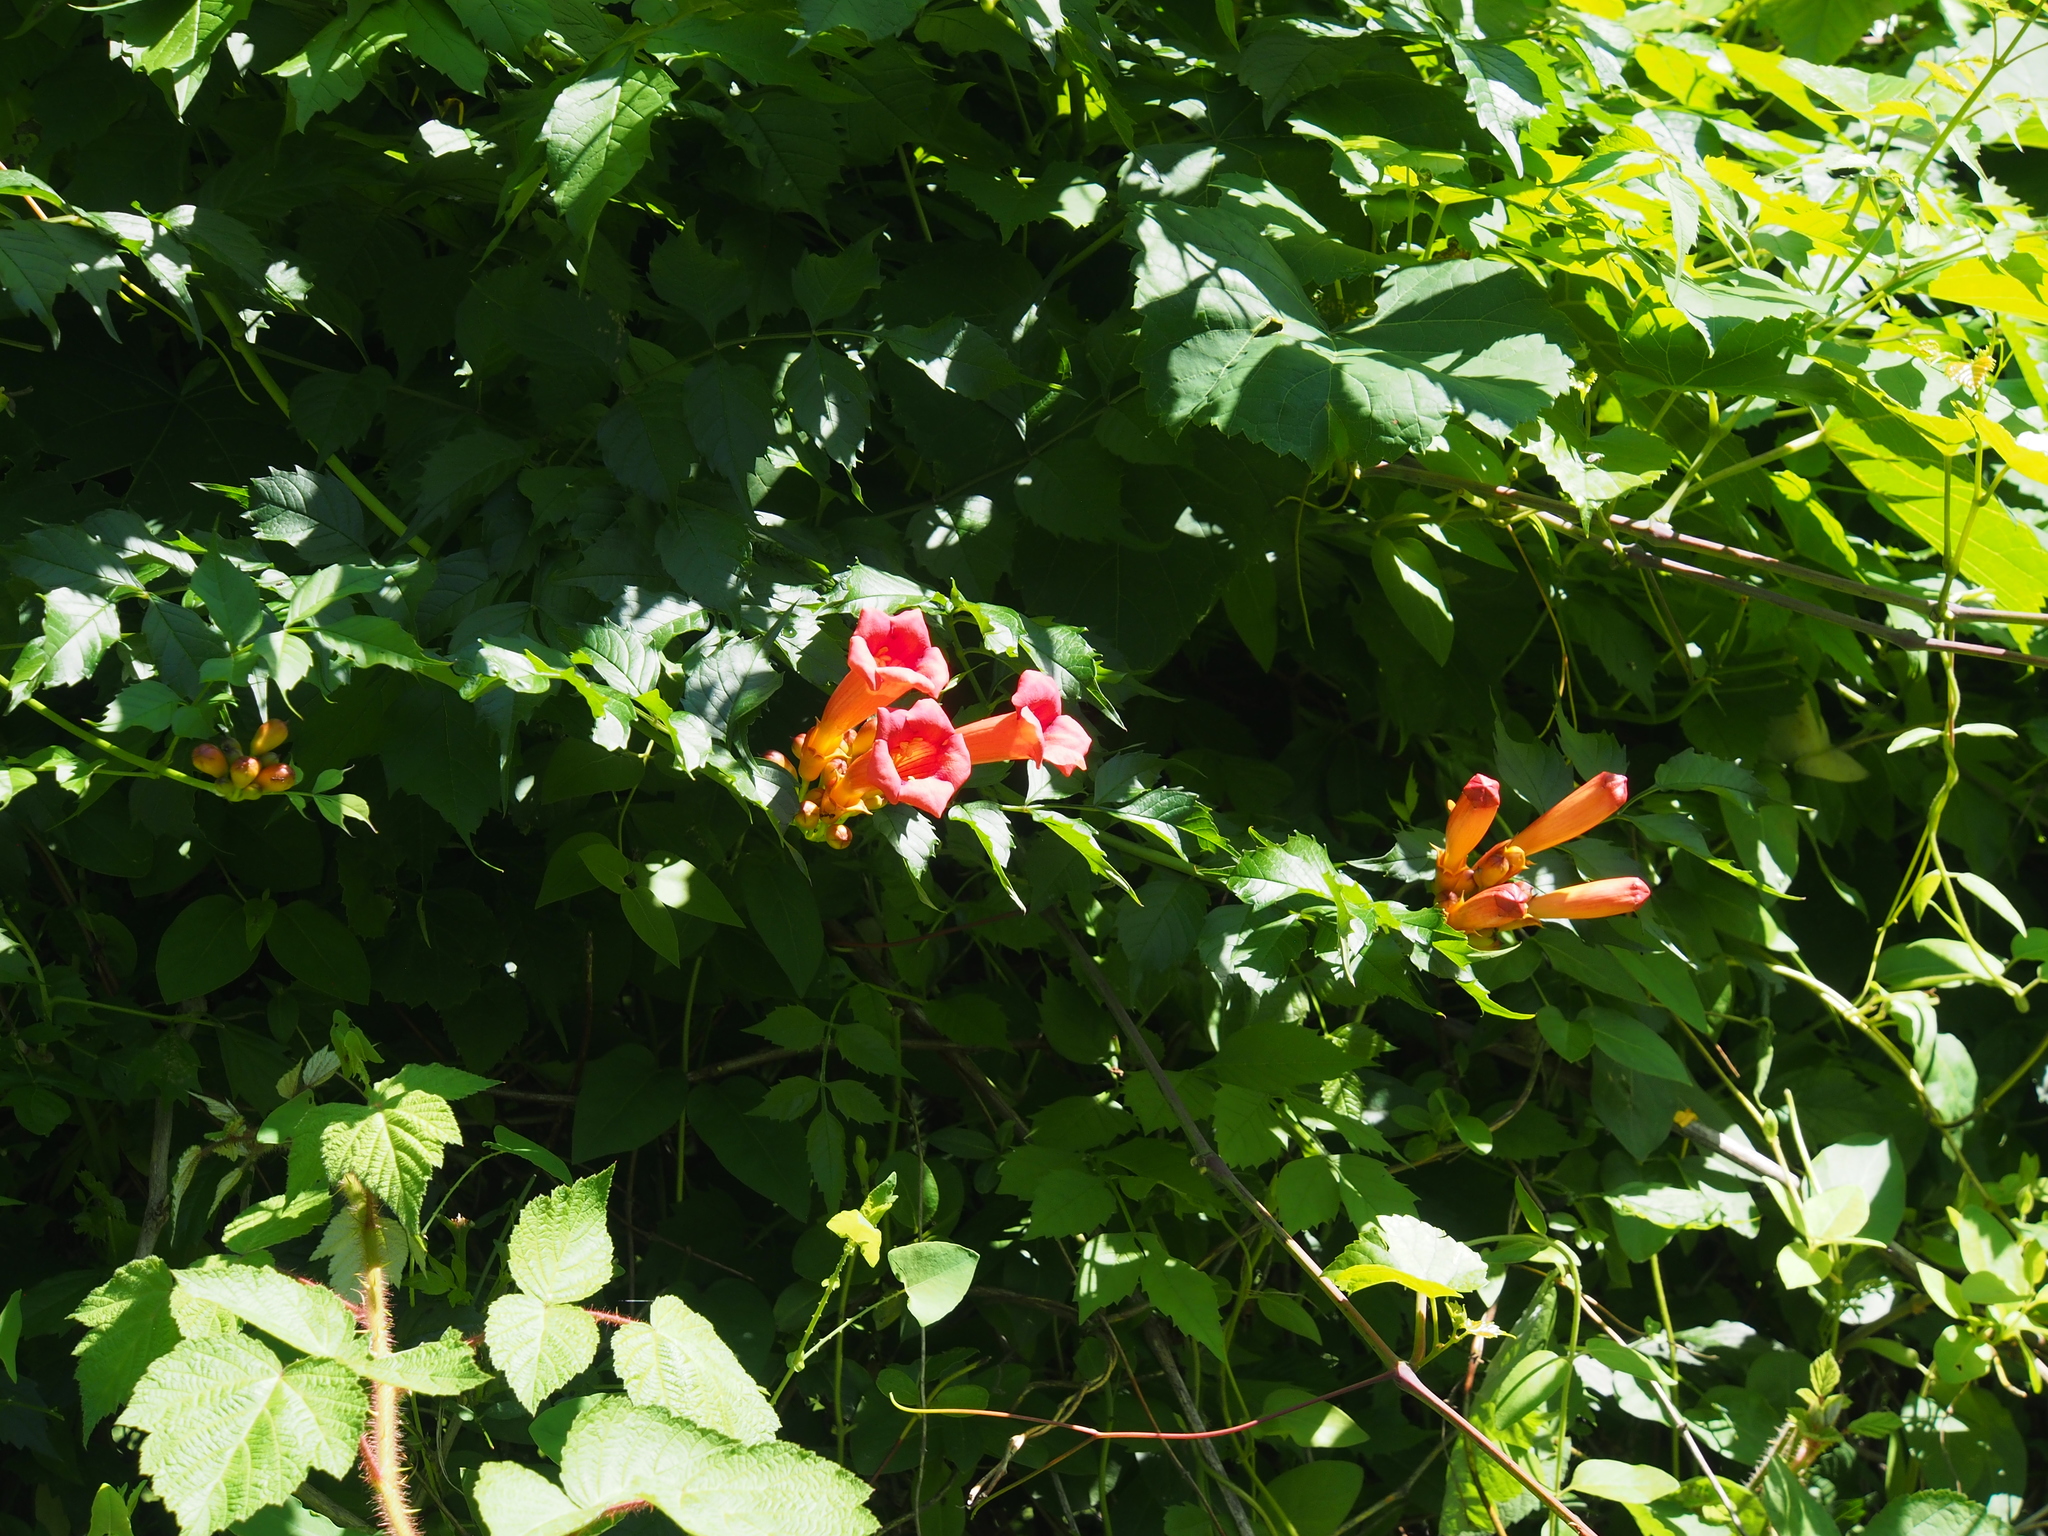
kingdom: Plantae
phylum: Tracheophyta
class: Magnoliopsida
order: Lamiales
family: Bignoniaceae
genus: Campsis
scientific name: Campsis radicans
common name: Trumpet-creeper
